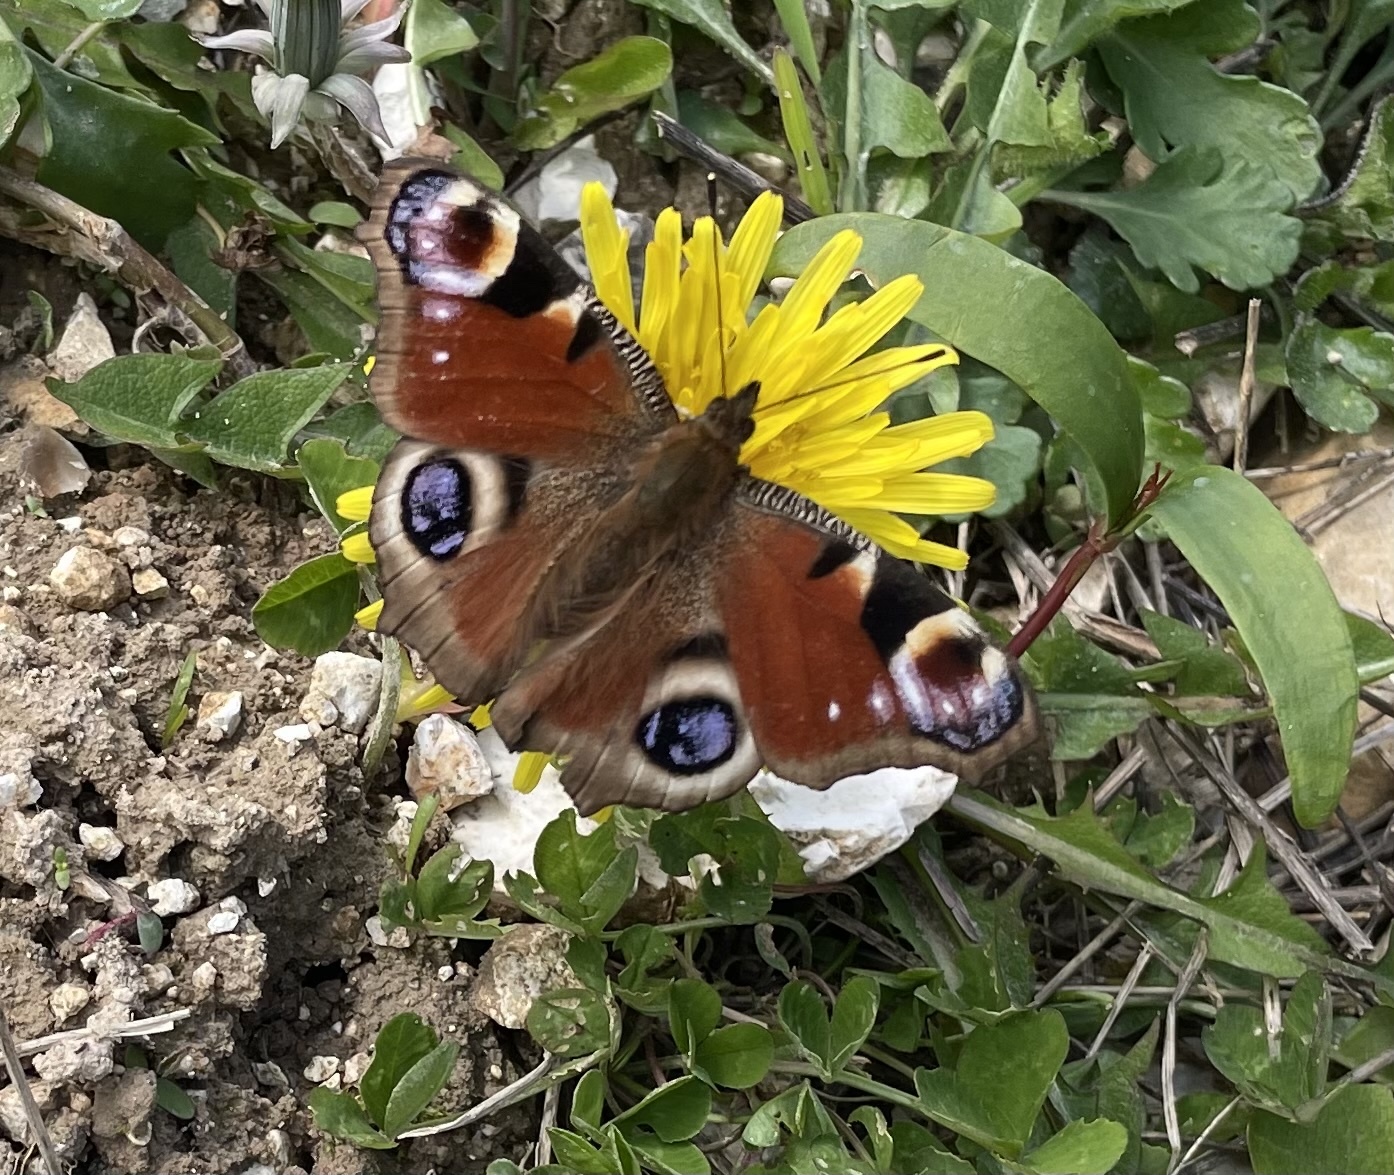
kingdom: Animalia
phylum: Arthropoda
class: Insecta
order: Lepidoptera
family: Nymphalidae
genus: Aglais
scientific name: Aglais io
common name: Peacock
